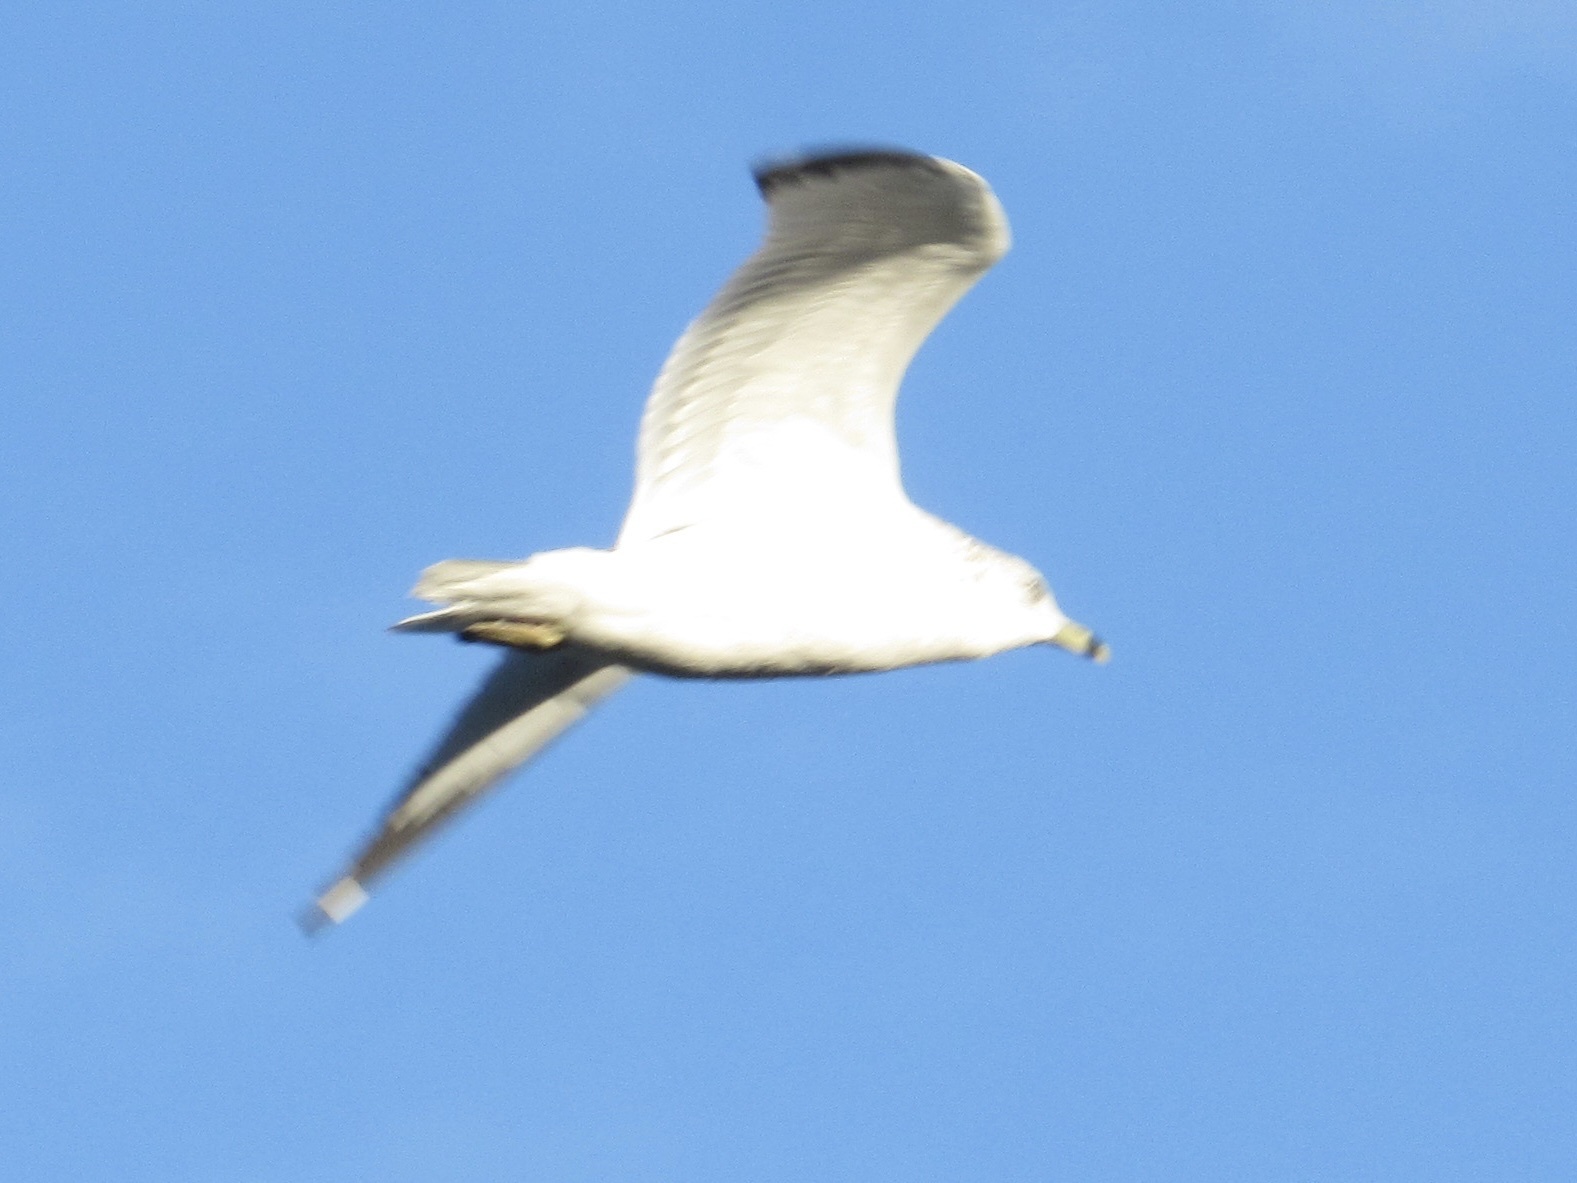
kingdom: Animalia
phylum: Chordata
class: Aves
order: Charadriiformes
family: Laridae
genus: Larus
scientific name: Larus delawarensis
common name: Ring-billed gull
